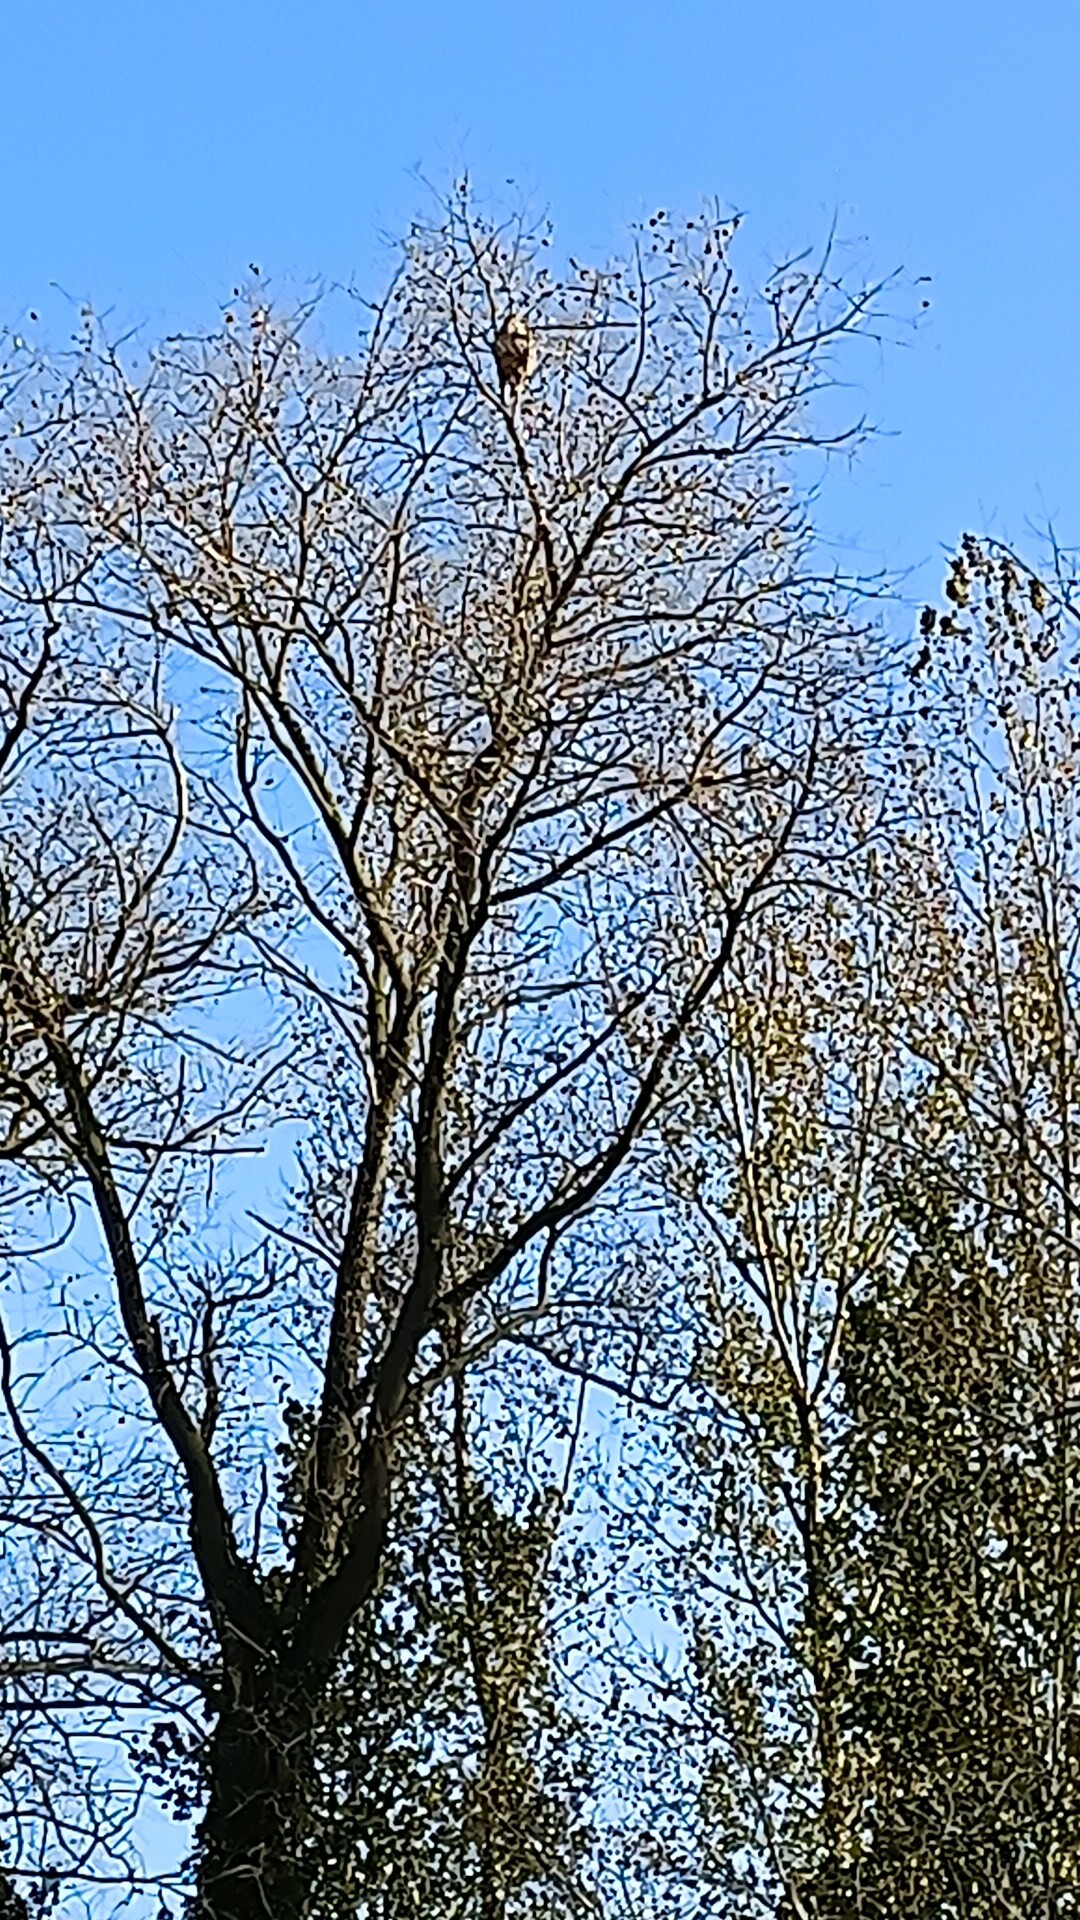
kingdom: Animalia
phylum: Arthropoda
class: Insecta
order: Hymenoptera
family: Vespidae
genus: Vespa
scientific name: Vespa velutina
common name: Asian hornet
